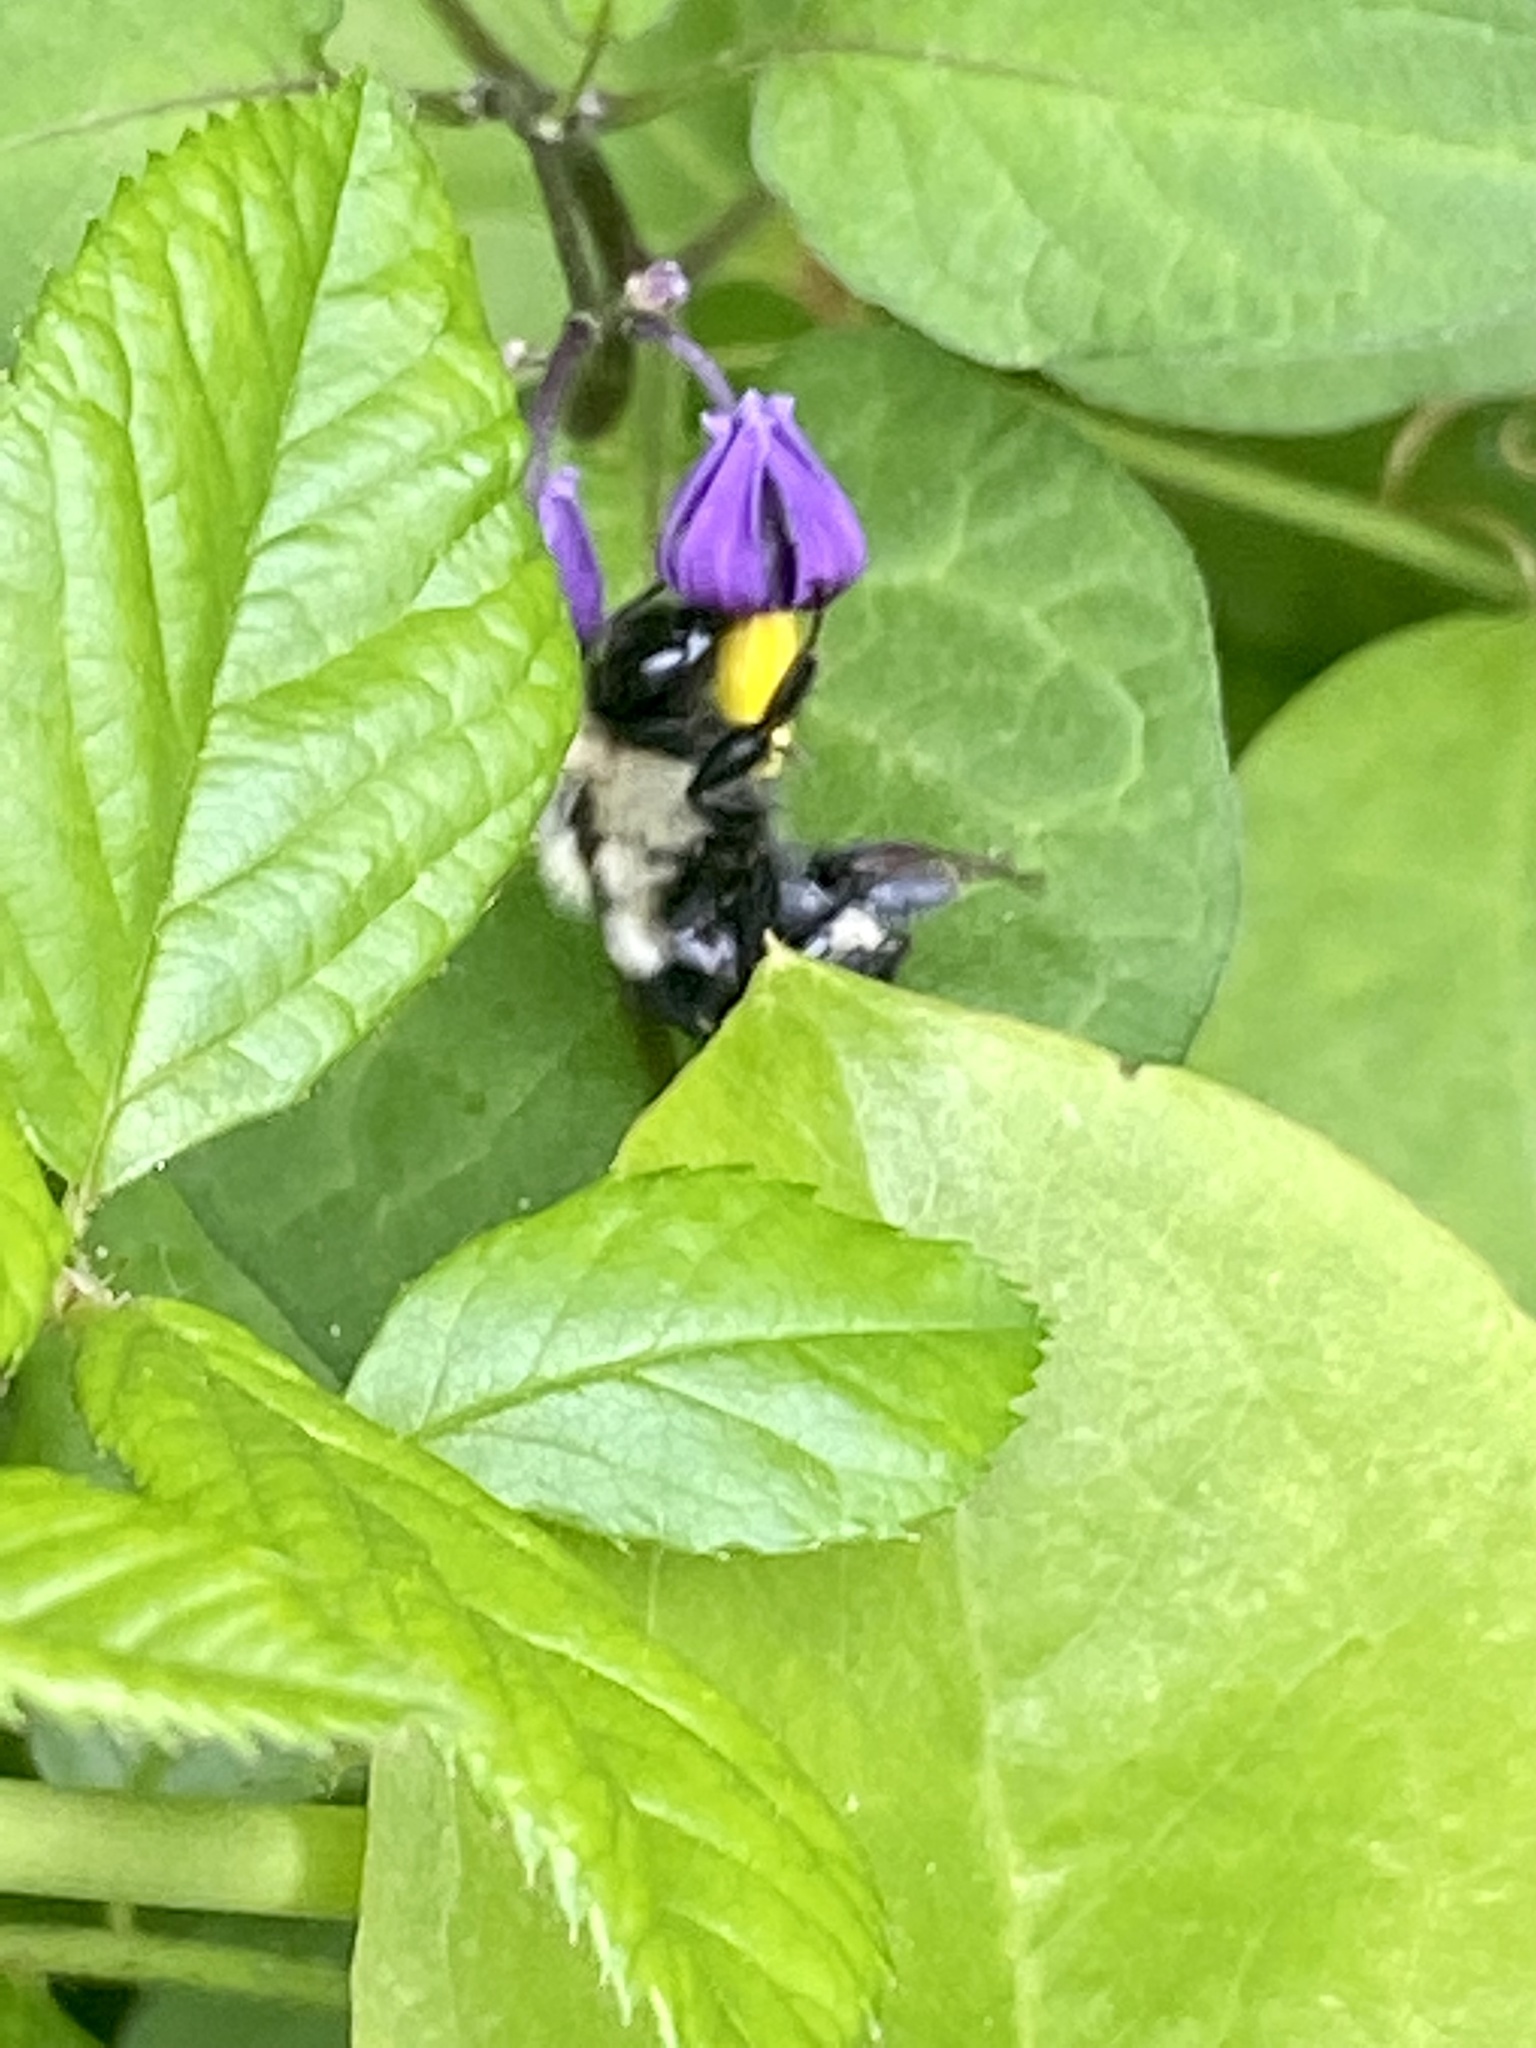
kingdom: Animalia
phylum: Arthropoda
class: Insecta
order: Hymenoptera
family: Apidae
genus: Bombus
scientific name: Bombus impatiens
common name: Common eastern bumble bee
